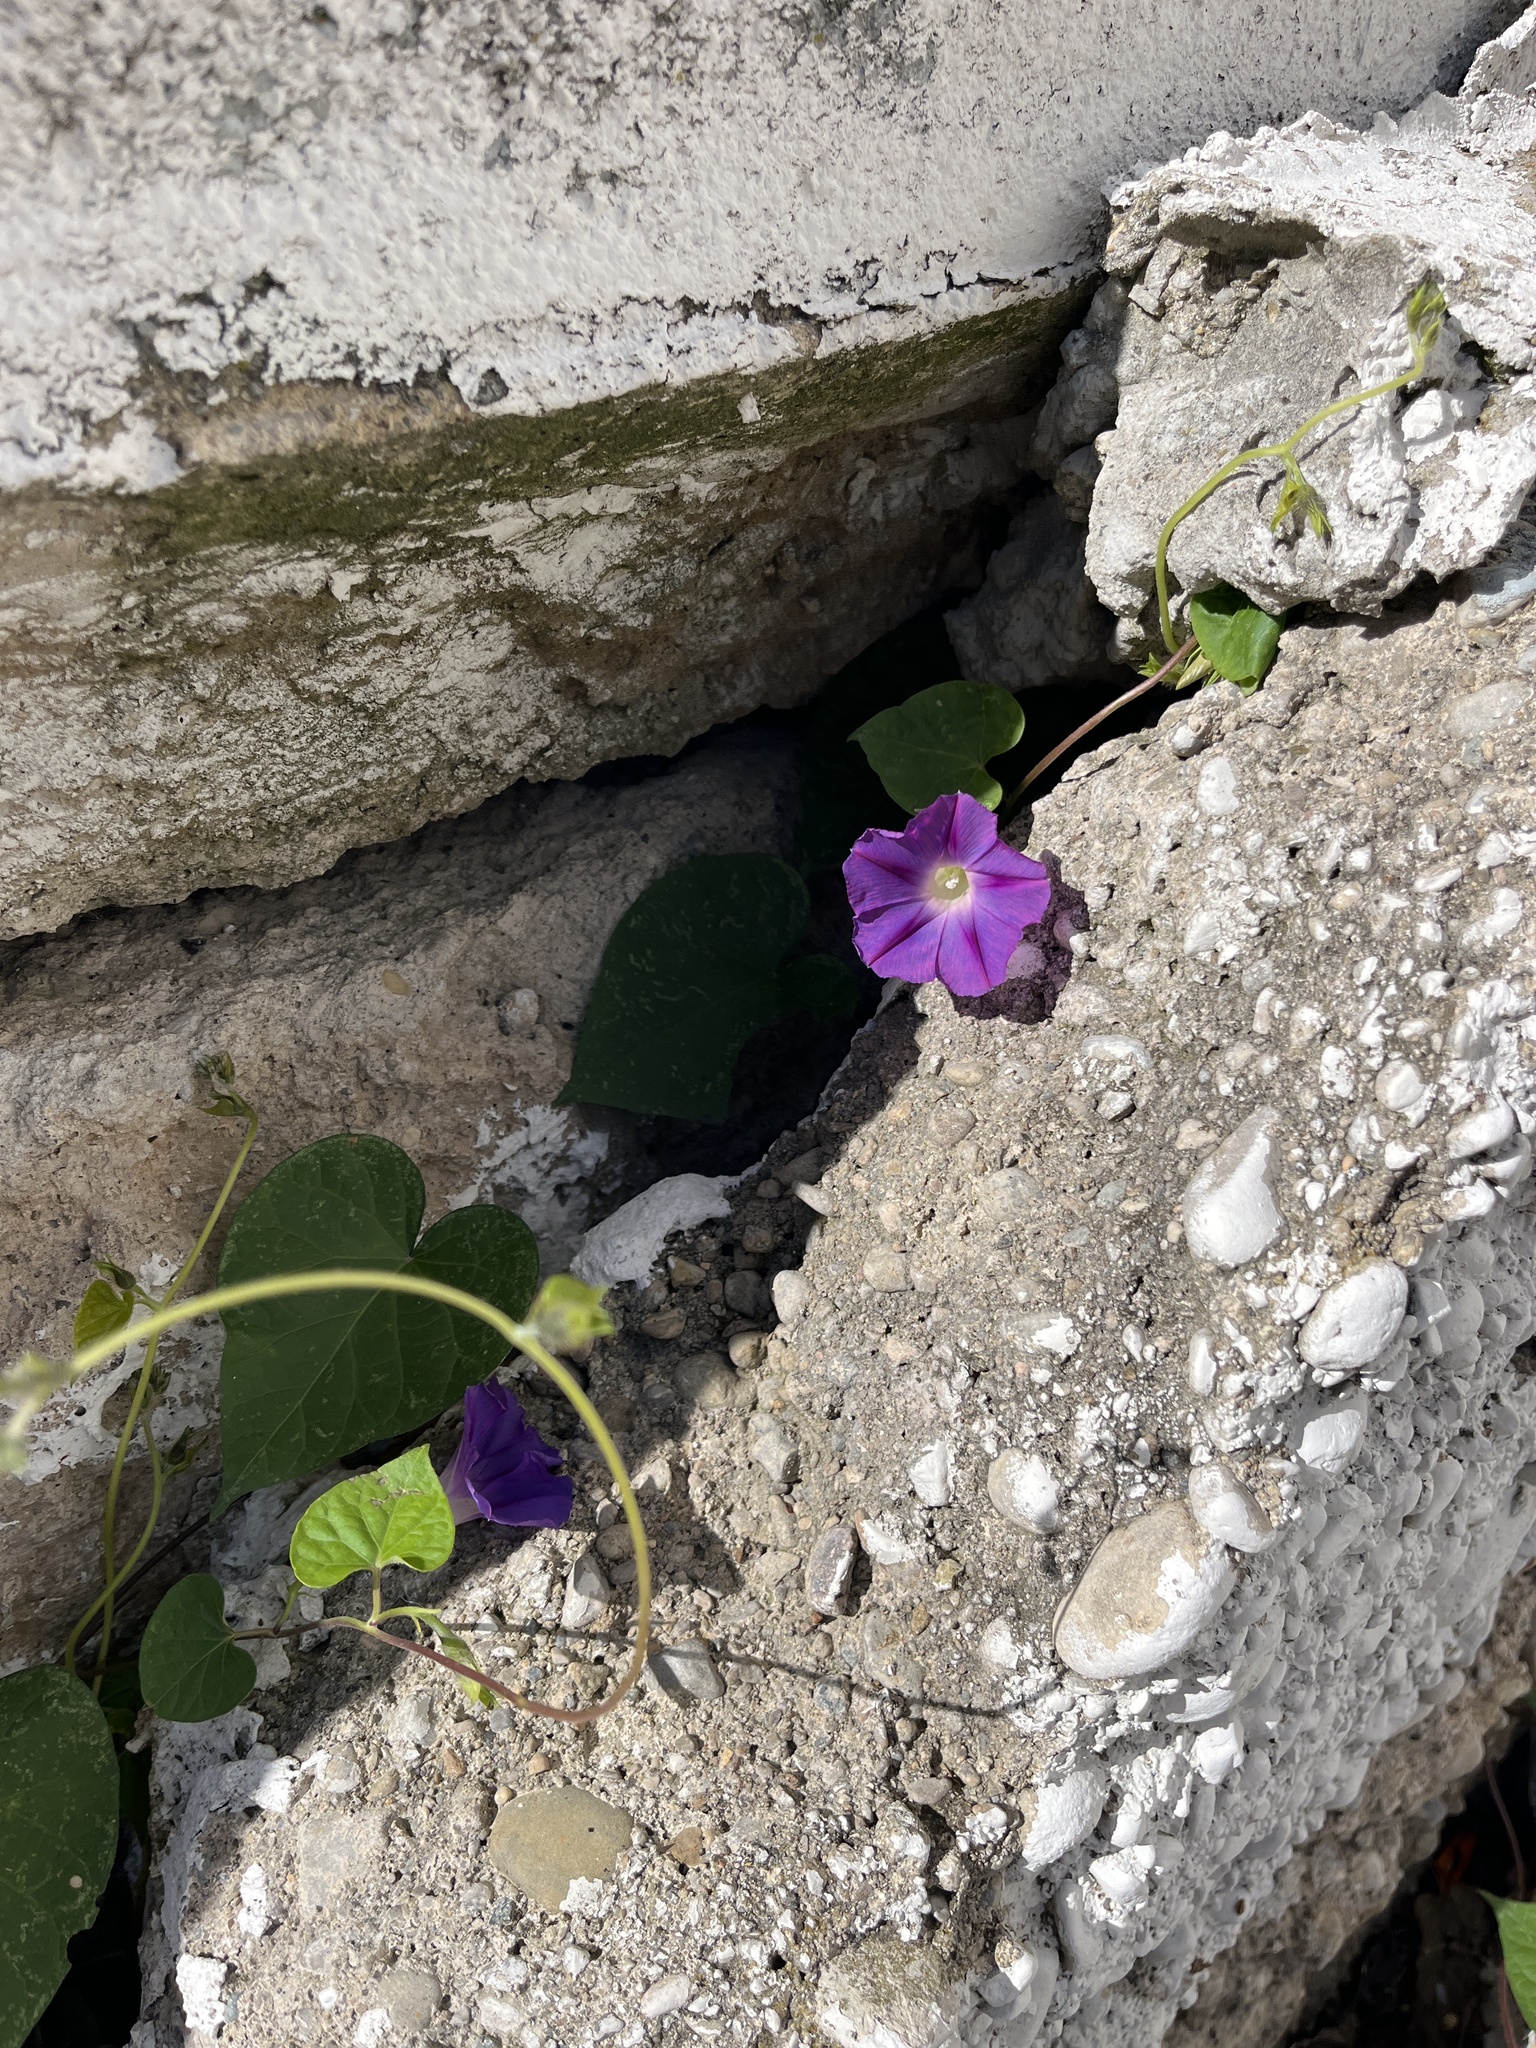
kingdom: Plantae
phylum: Tracheophyta
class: Magnoliopsida
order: Solanales
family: Convolvulaceae
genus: Ipomoea
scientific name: Ipomoea purpurea
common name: Common morning-glory
